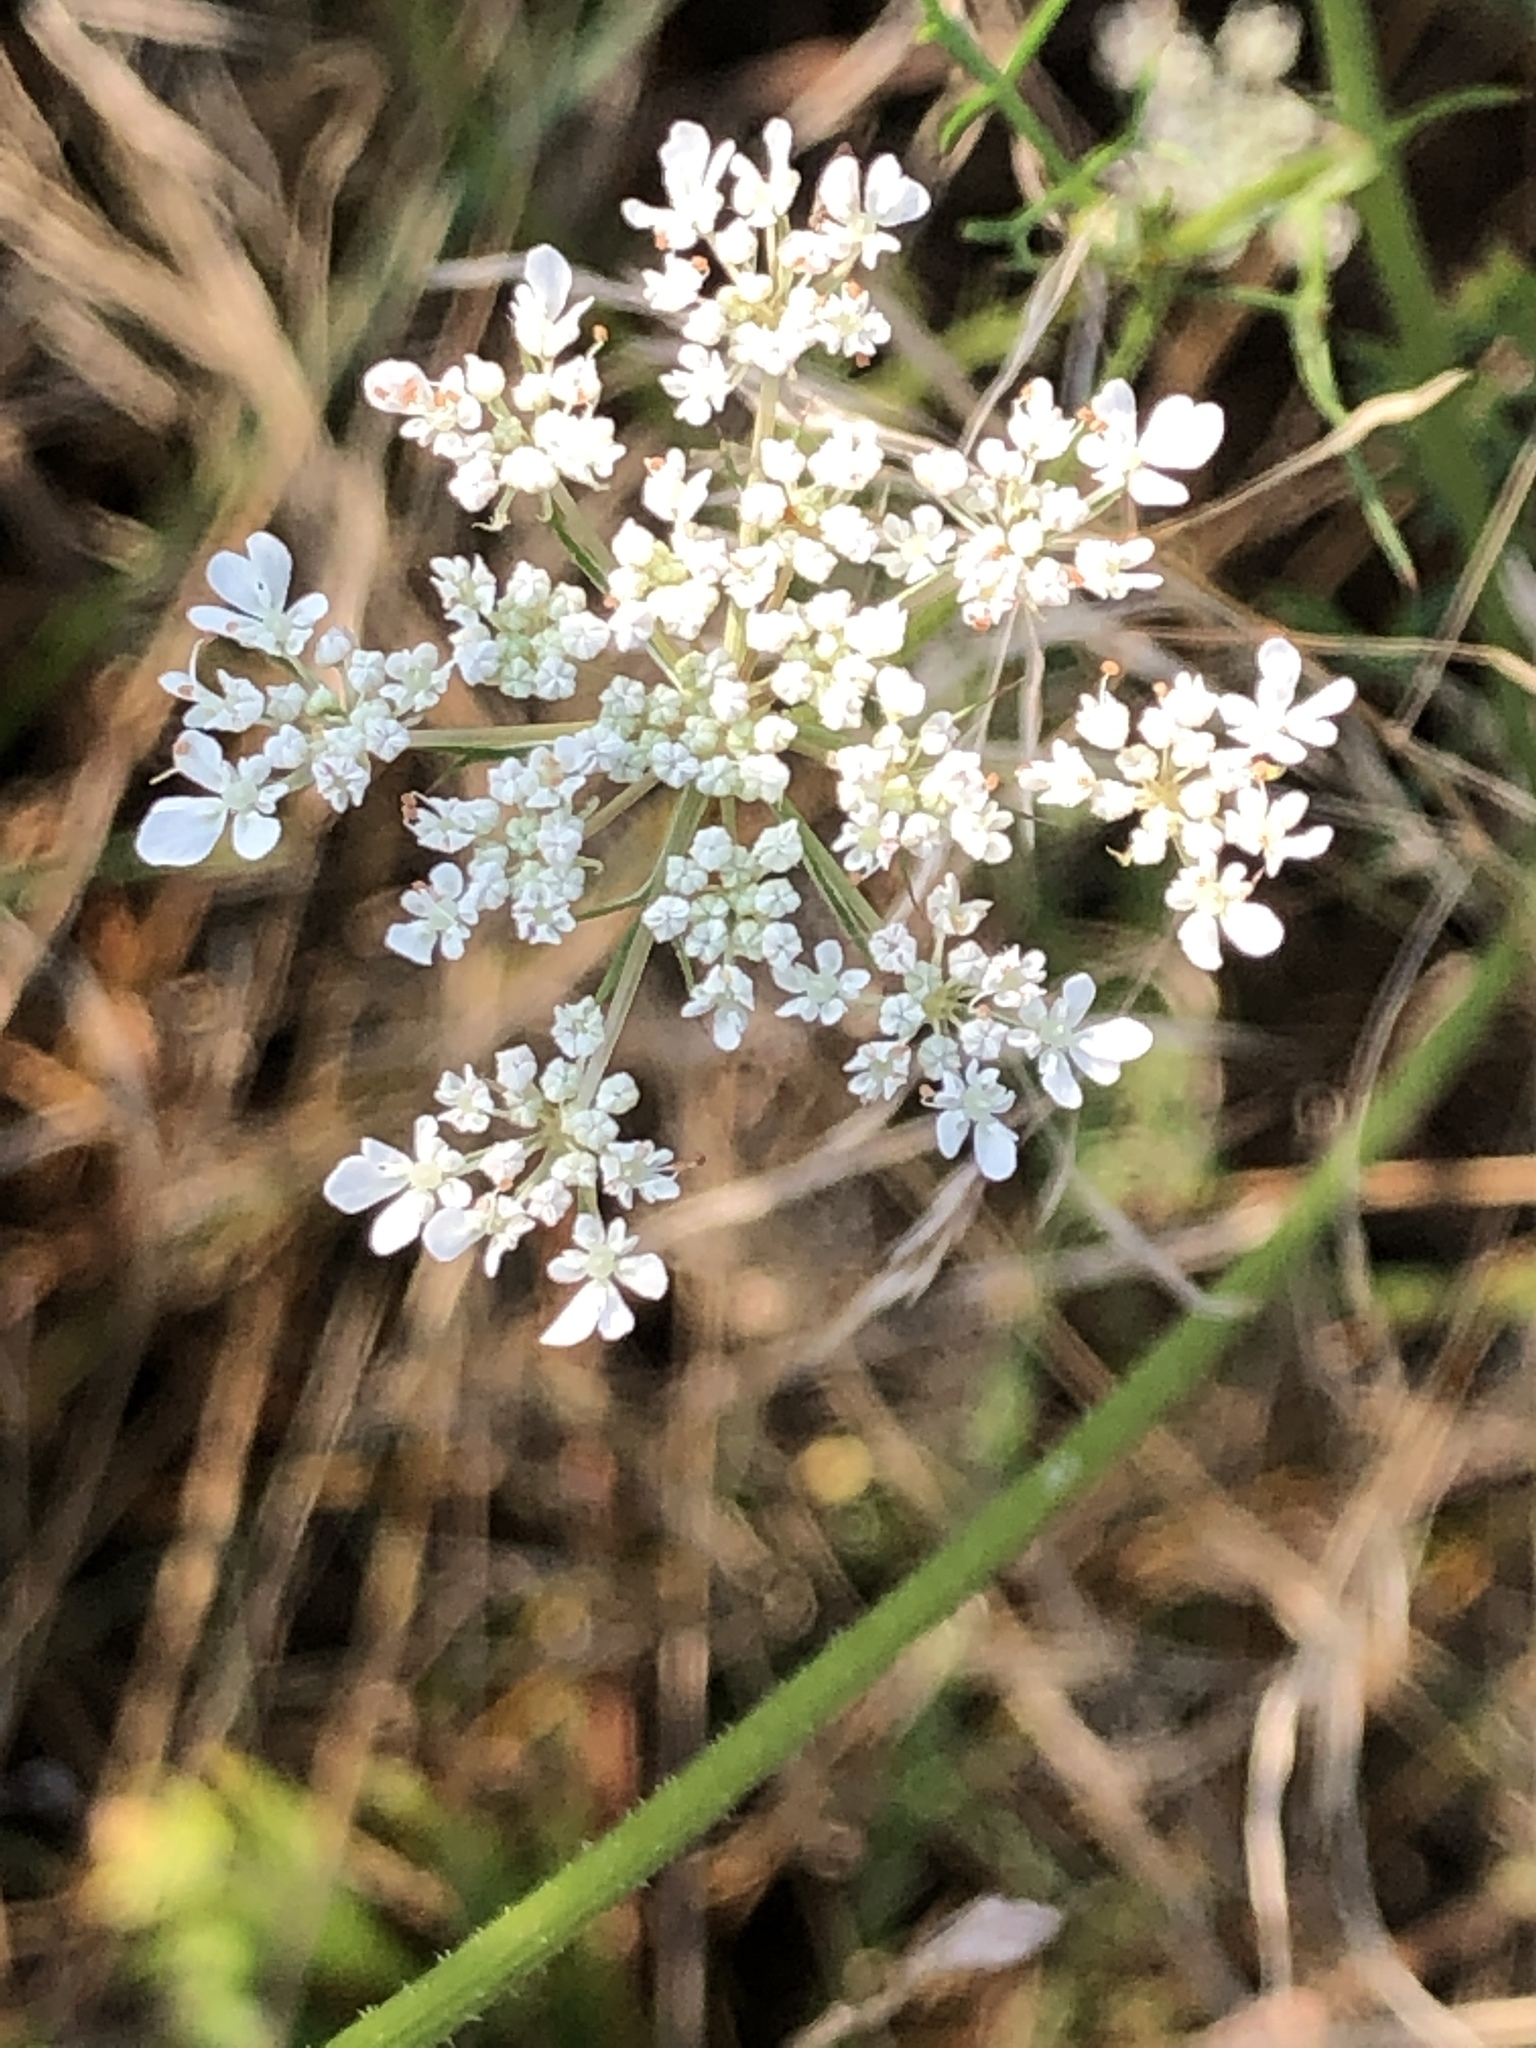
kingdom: Plantae
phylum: Tracheophyta
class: Magnoliopsida
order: Apiales
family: Apiaceae
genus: Daucus
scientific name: Daucus carota
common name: Wild carrot
